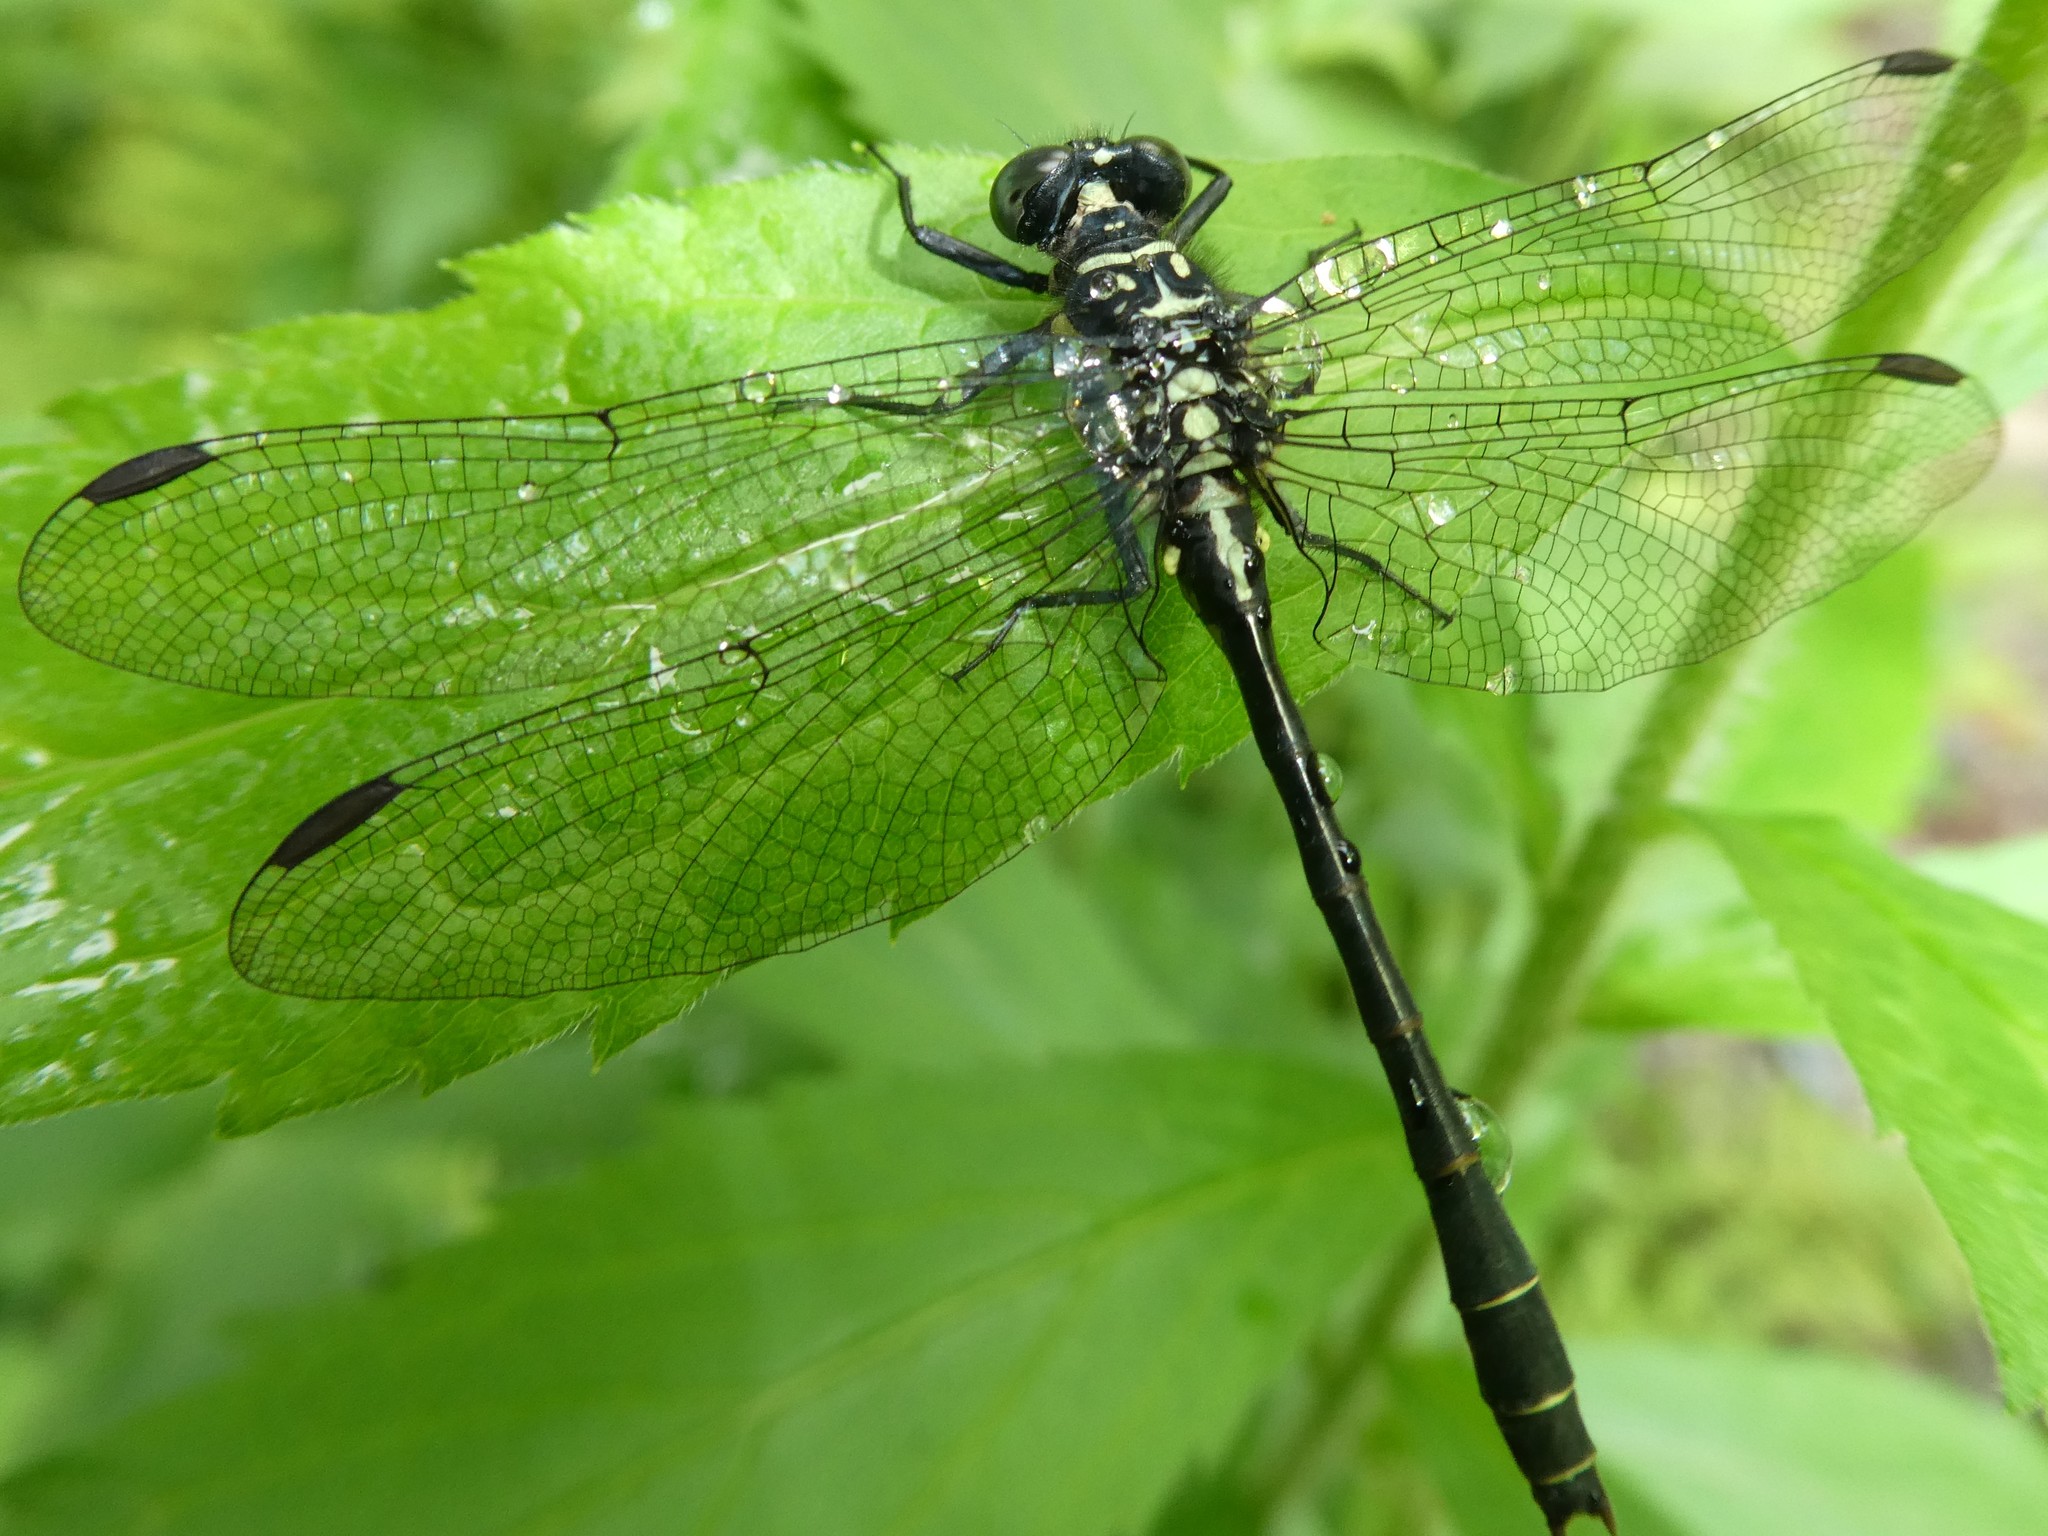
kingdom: Animalia
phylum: Arthropoda
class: Insecta
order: Odonata
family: Gomphidae
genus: Lanthus
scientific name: Lanthus parvulus
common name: Northern pygmy clubtail
